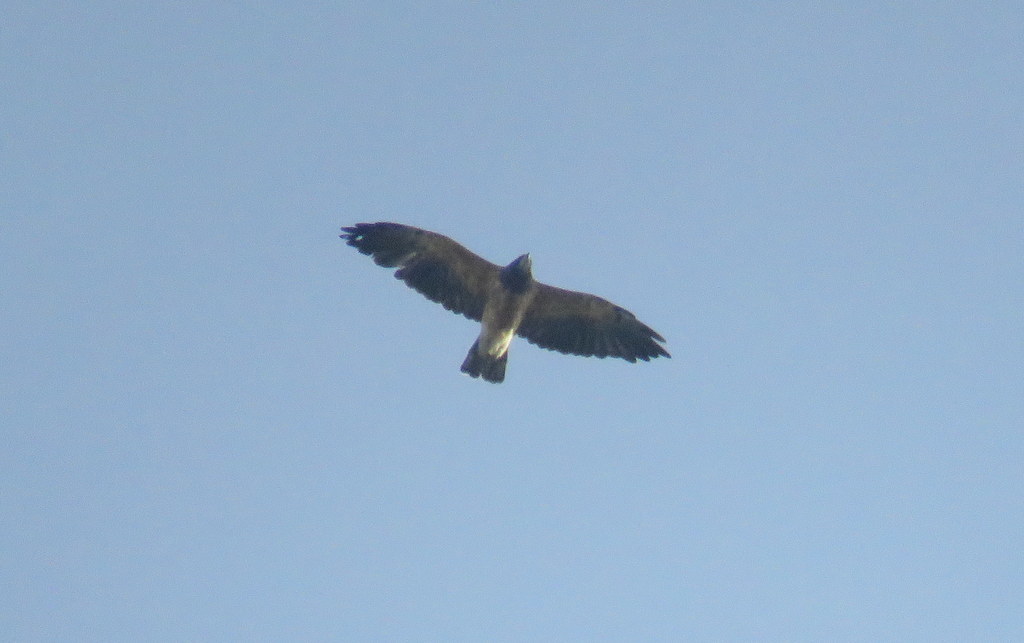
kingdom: Animalia
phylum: Chordata
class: Aves
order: Accipitriformes
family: Accipitridae
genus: Buteo
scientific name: Buteo swainsoni
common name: Swainson's hawk
